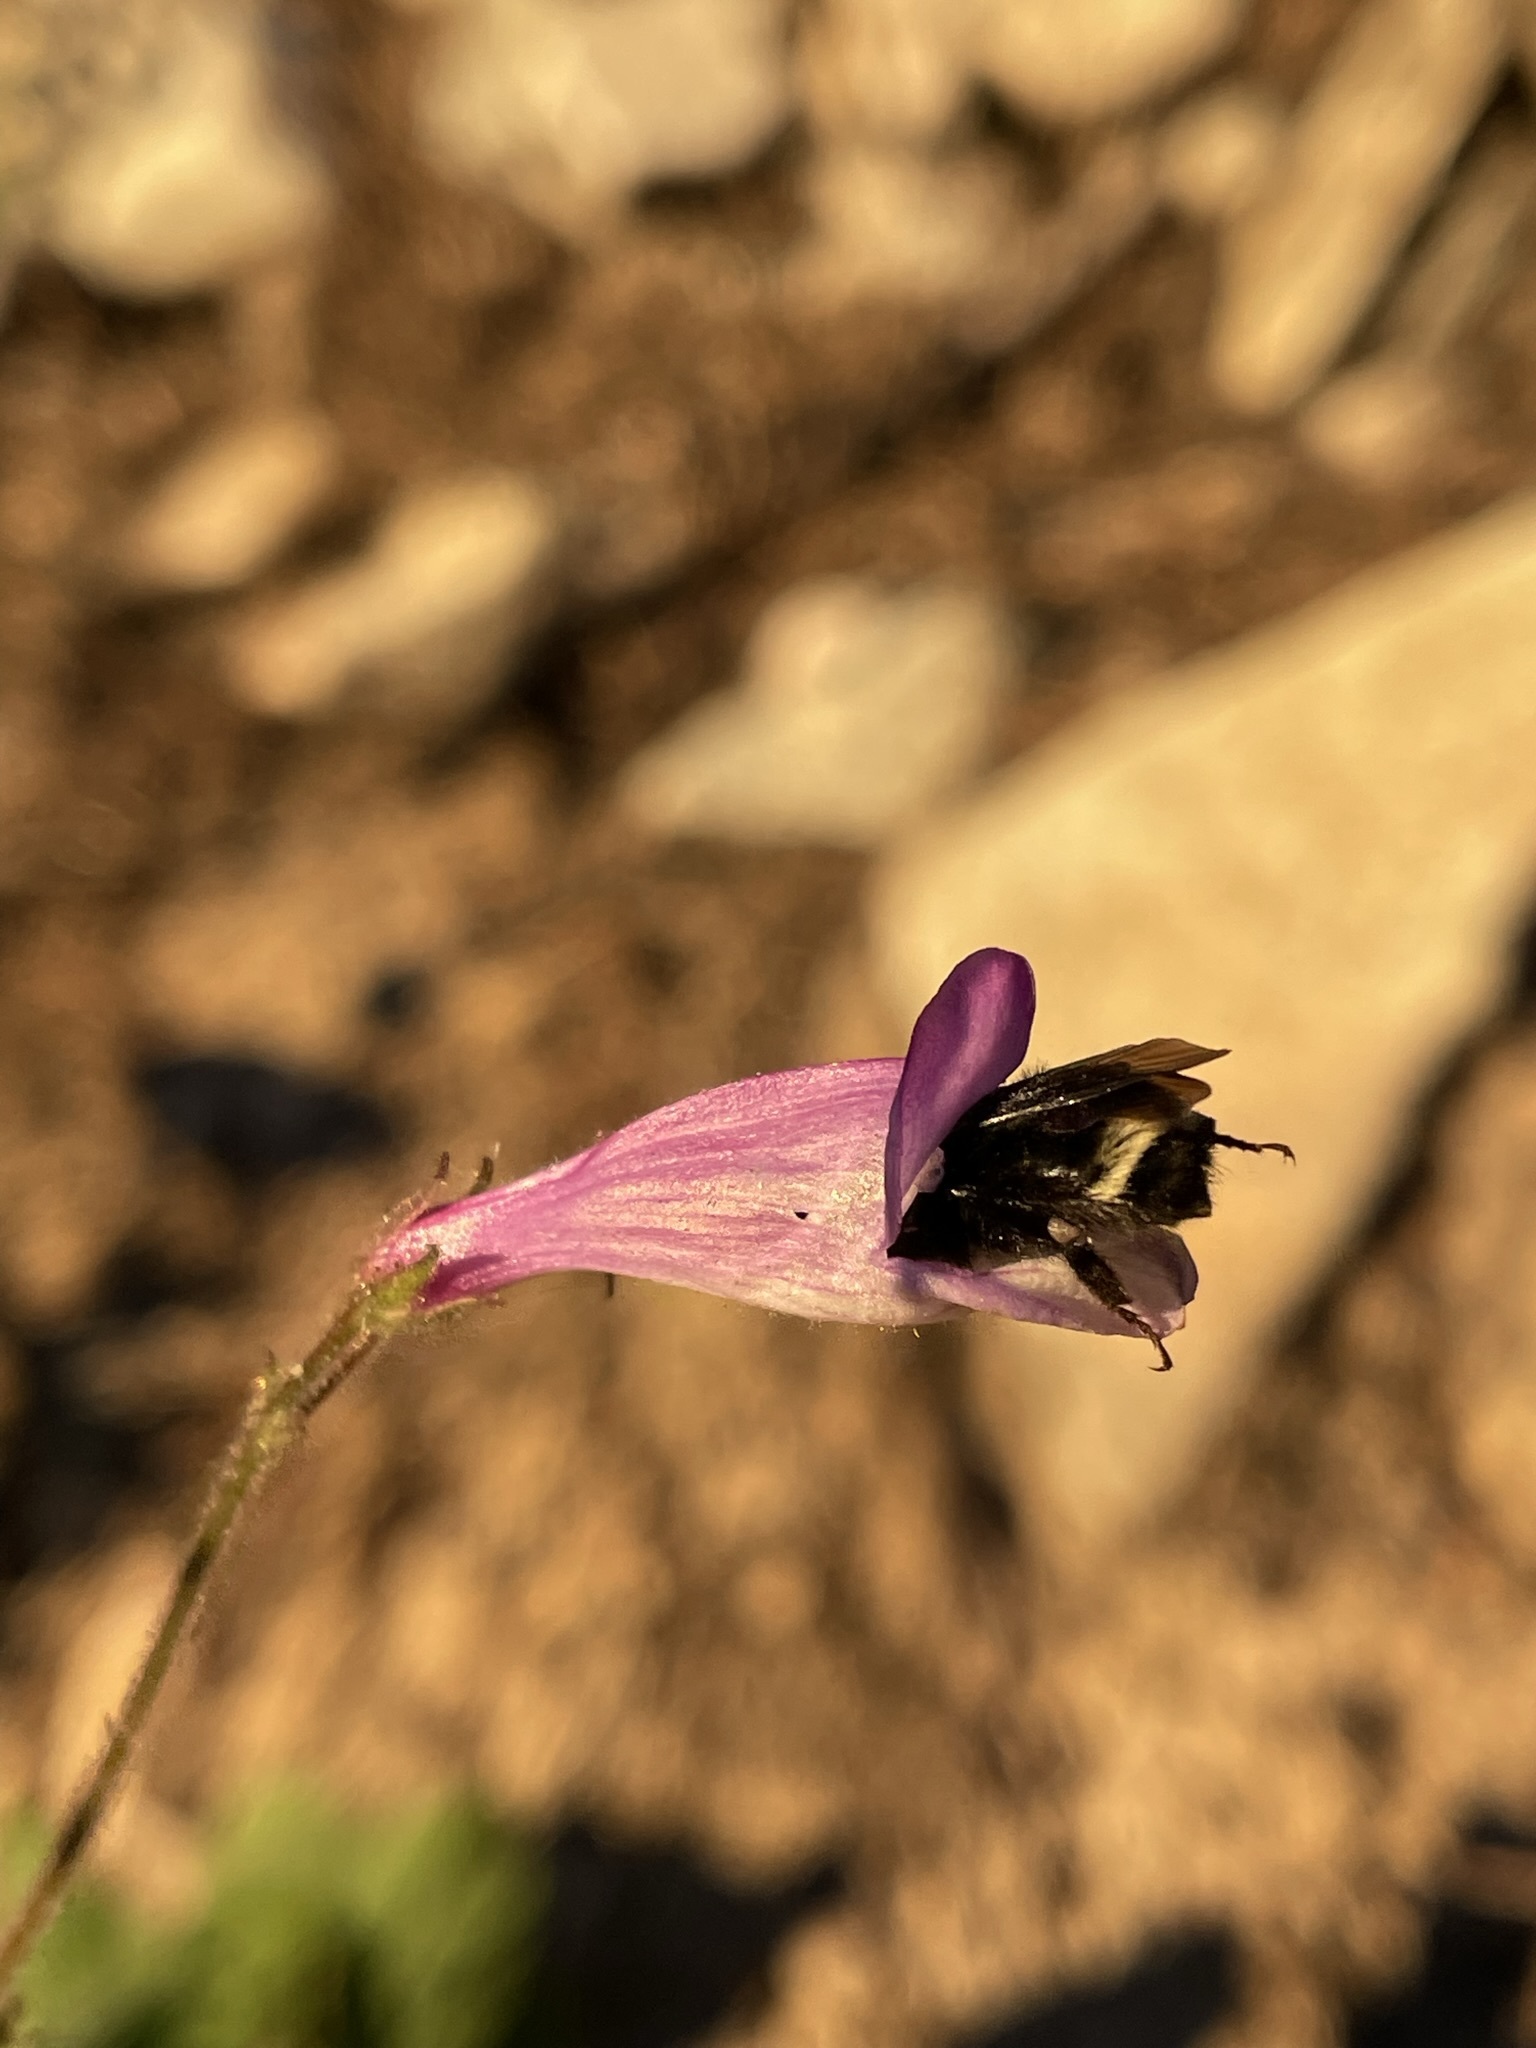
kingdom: Plantae
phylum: Tracheophyta
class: Magnoliopsida
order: Lamiales
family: Plantaginaceae
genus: Penstemon
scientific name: Penstemon personatus
